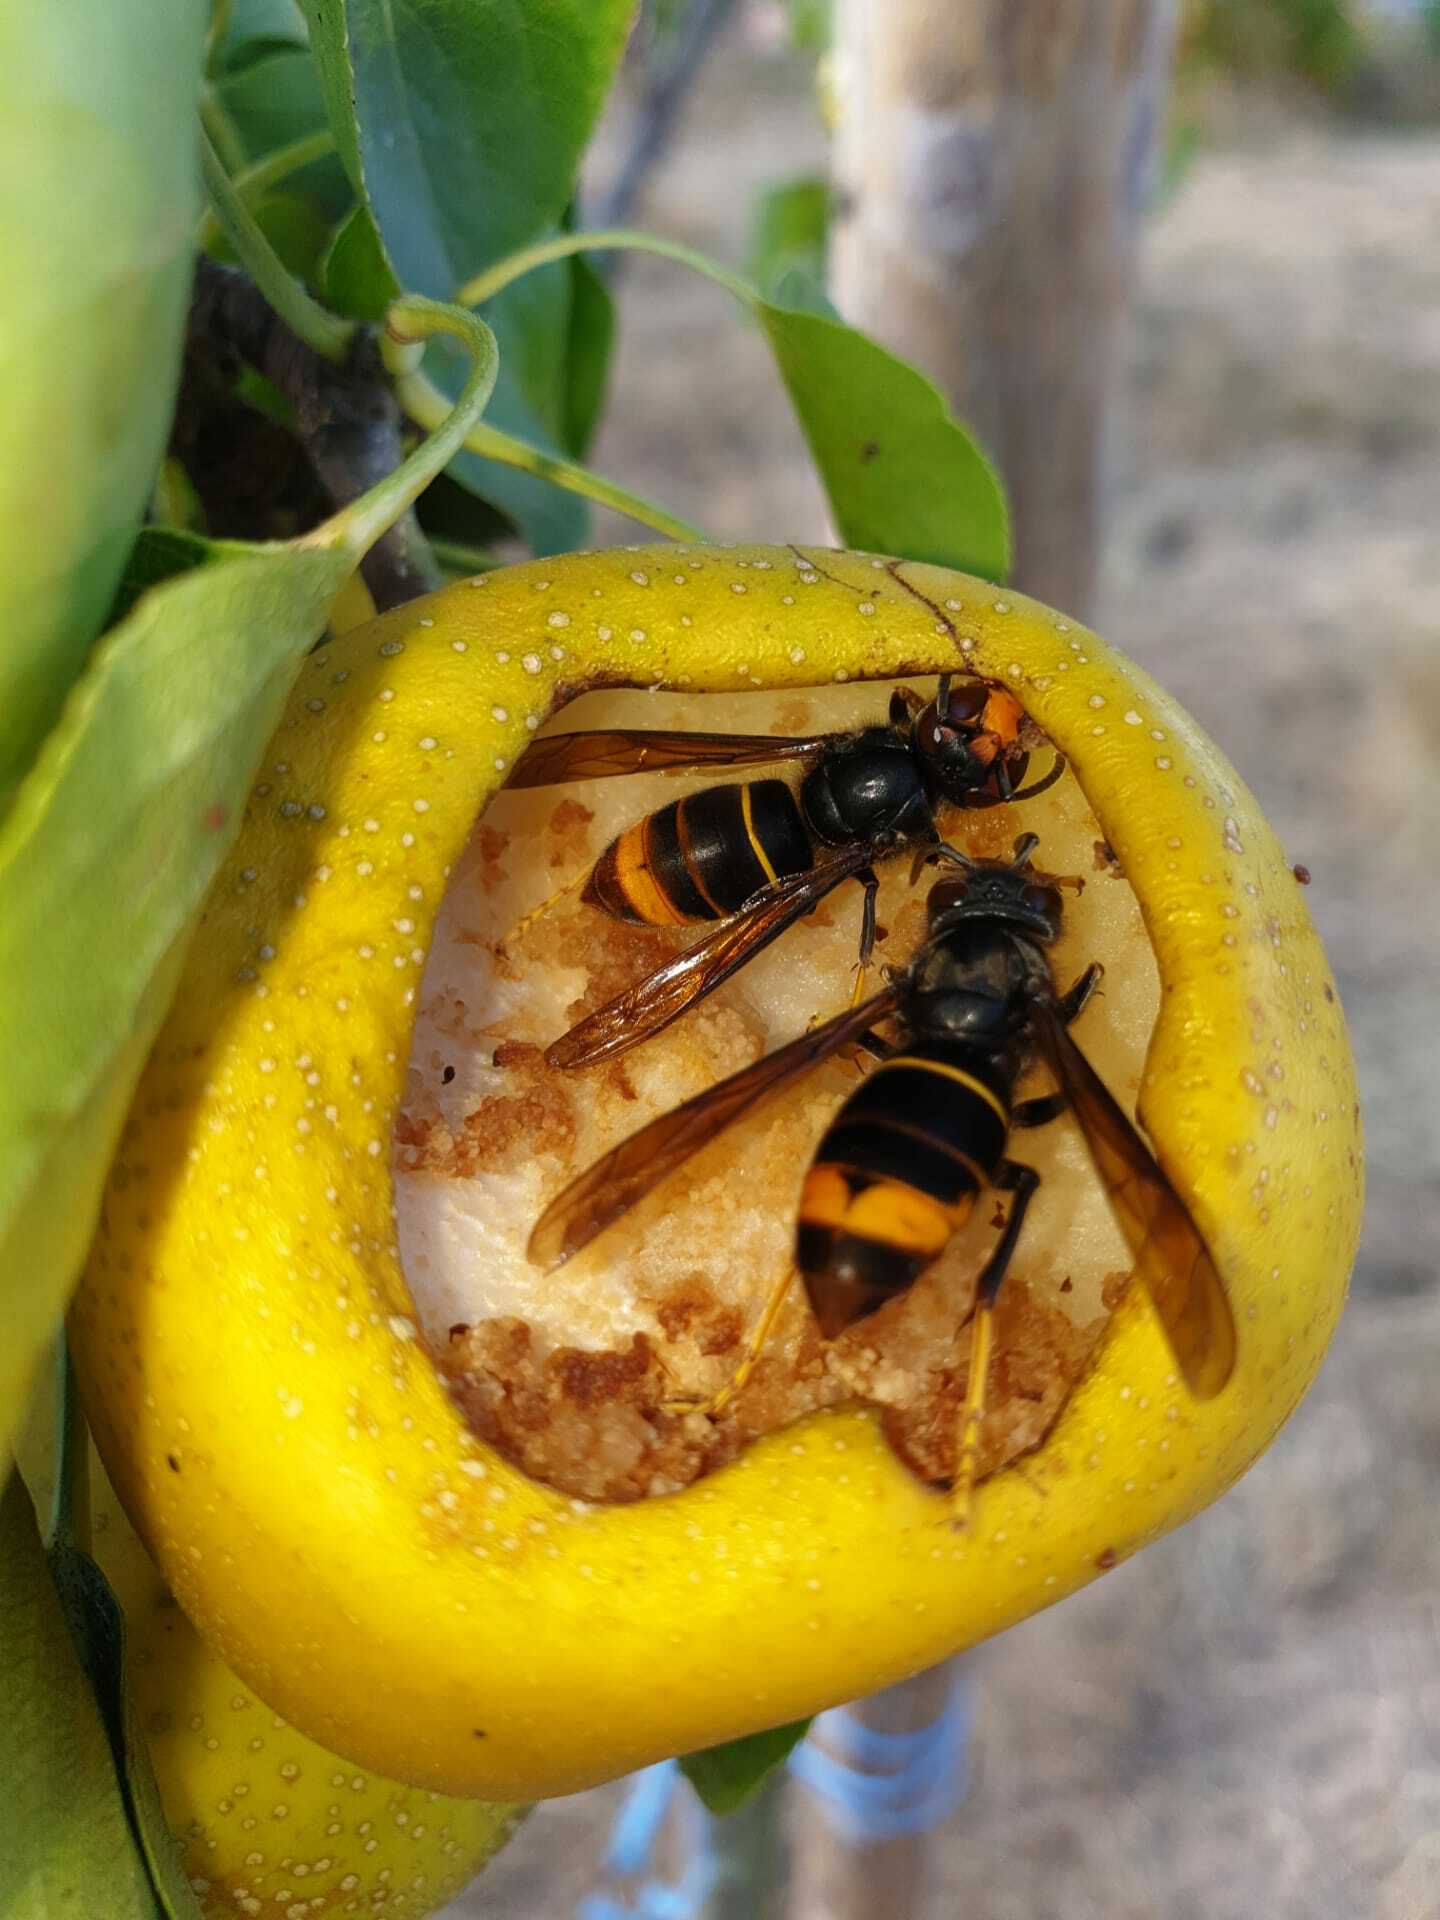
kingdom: Animalia
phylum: Arthropoda
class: Insecta
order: Hymenoptera
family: Vespidae
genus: Vespa
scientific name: Vespa velutina
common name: Asian hornet
